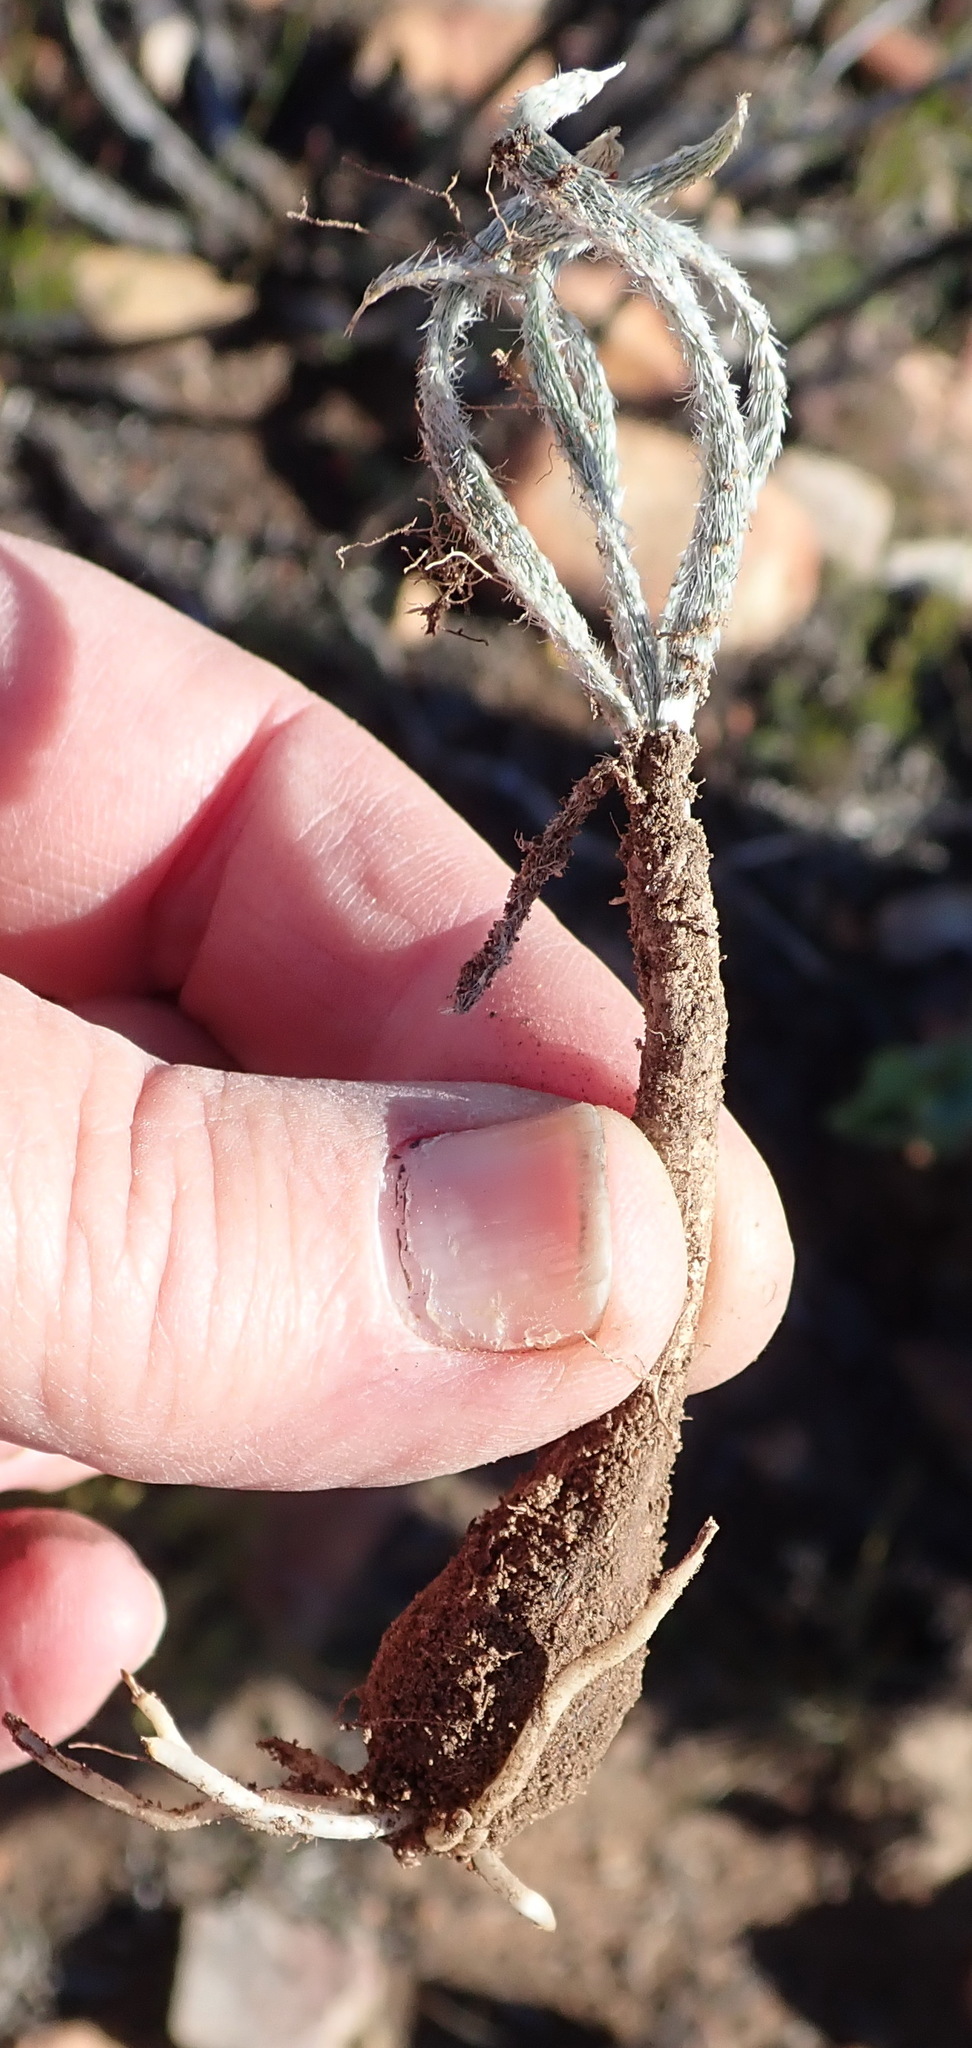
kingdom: Plantae
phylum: Tracheophyta
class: Liliopsida
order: Asparagales
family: Amaryllidaceae
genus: Gethyllis
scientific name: Gethyllis villosa
